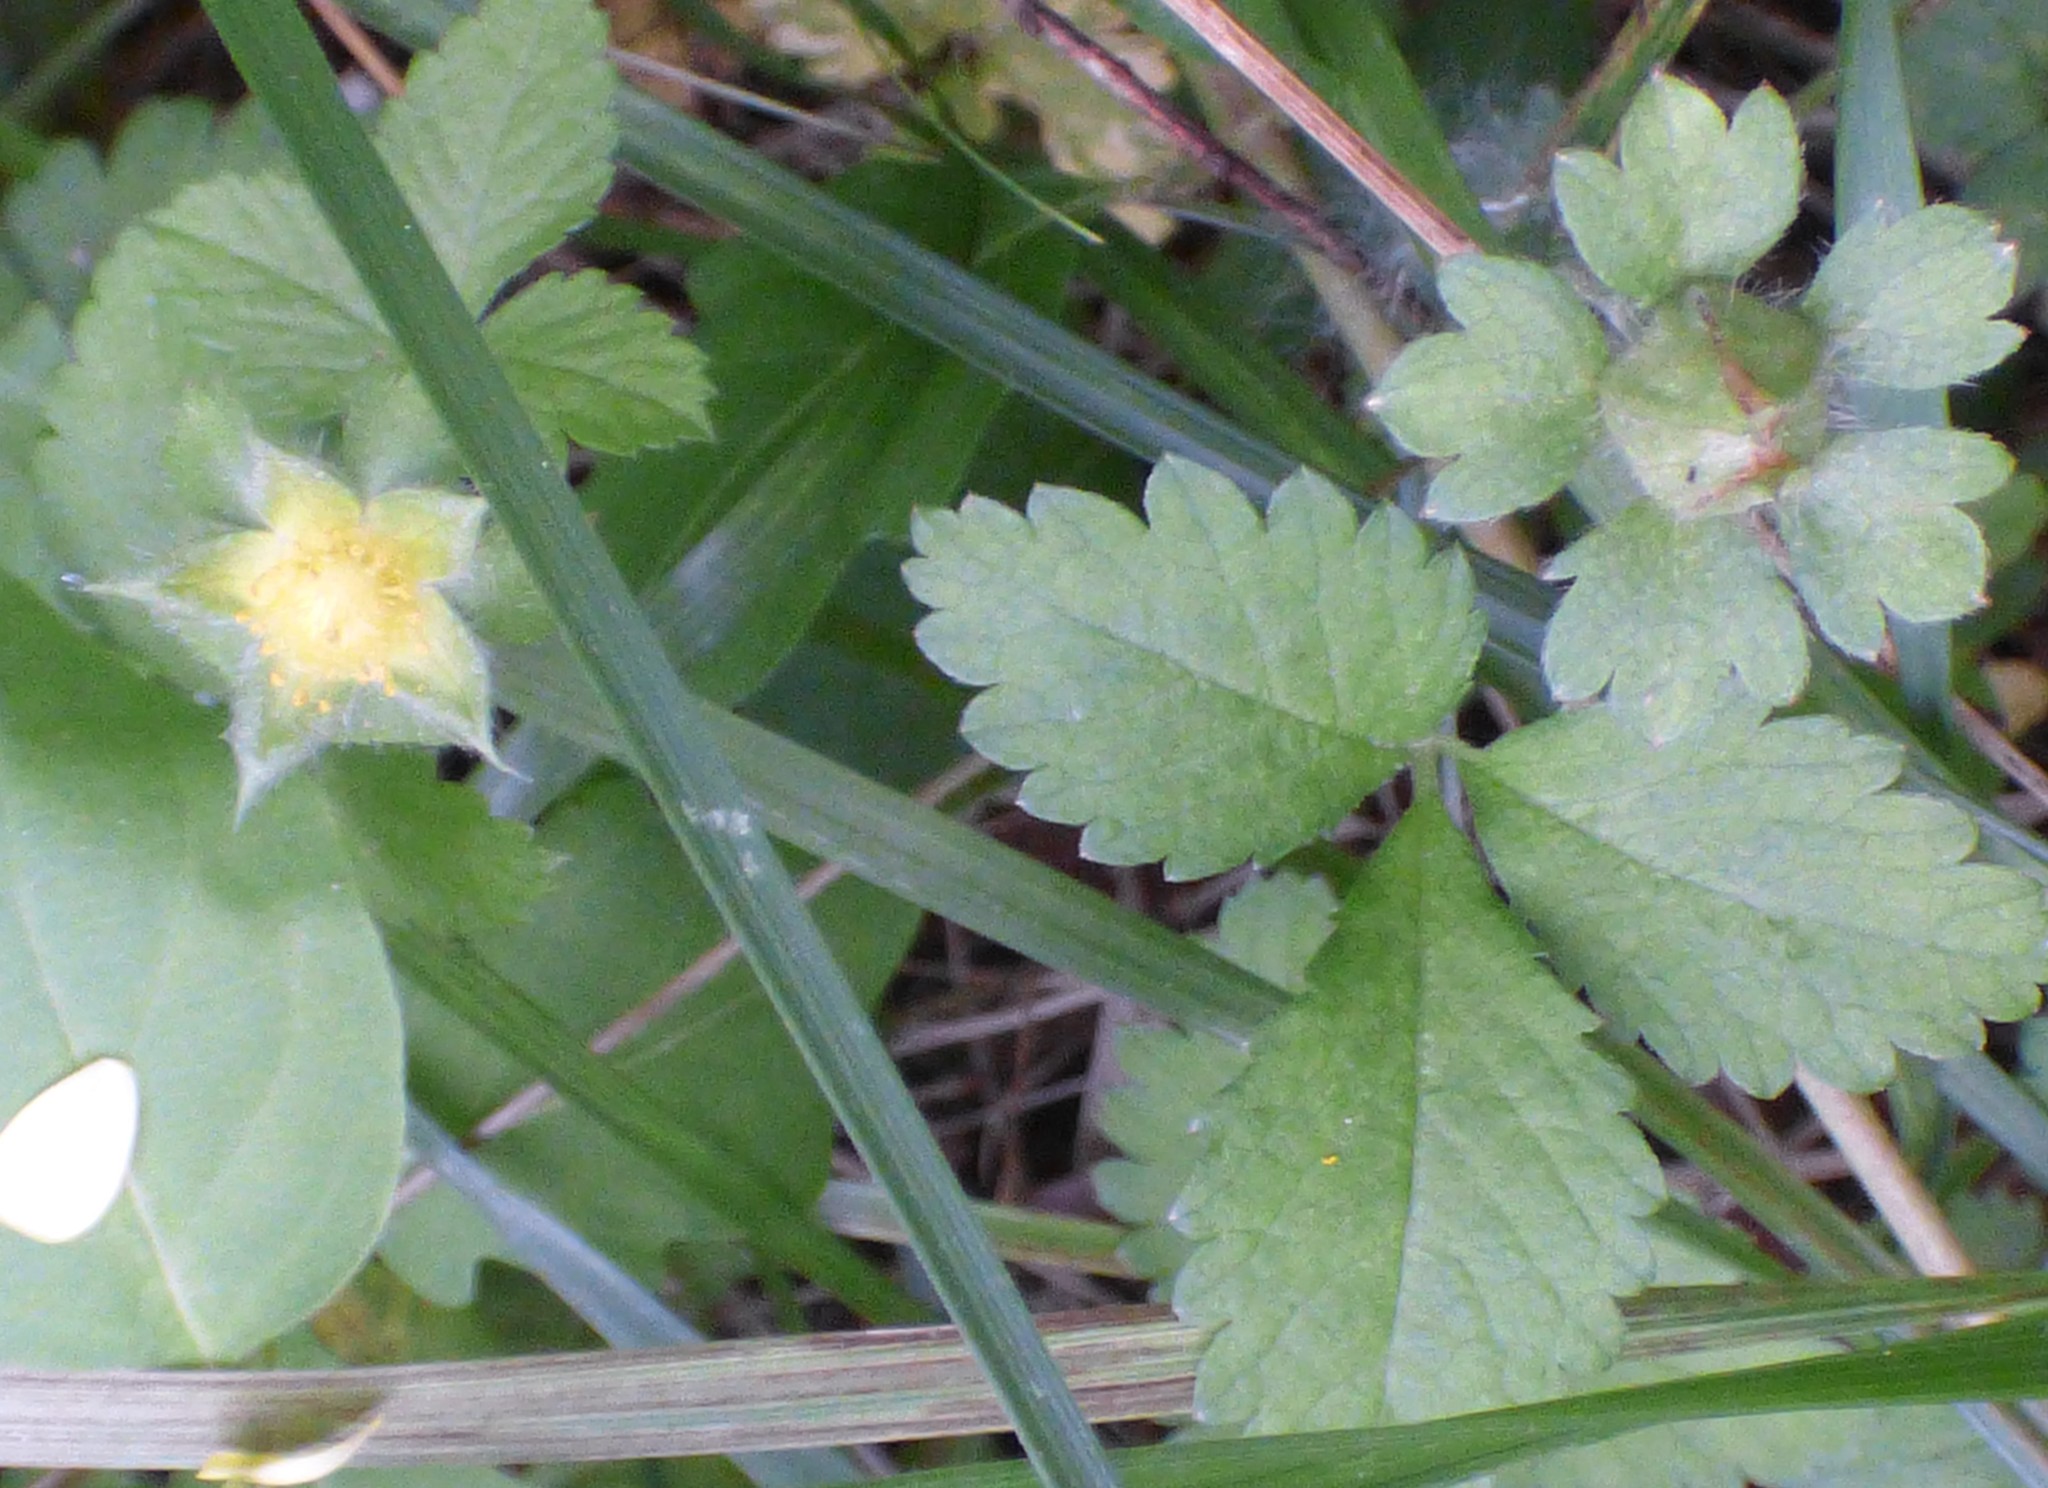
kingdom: Plantae
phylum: Tracheophyta
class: Magnoliopsida
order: Rosales
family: Rosaceae
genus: Potentilla
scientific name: Potentilla indica
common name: Yellow-flowered strawberry
